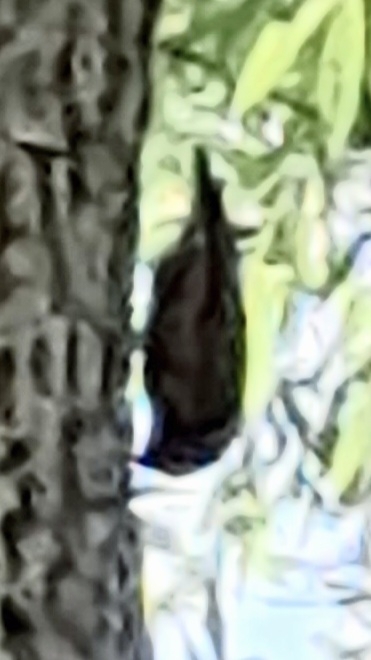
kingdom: Animalia
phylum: Chordata
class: Aves
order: Passeriformes
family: Sittidae
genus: Sitta
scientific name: Sitta europaea
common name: Eurasian nuthatch
